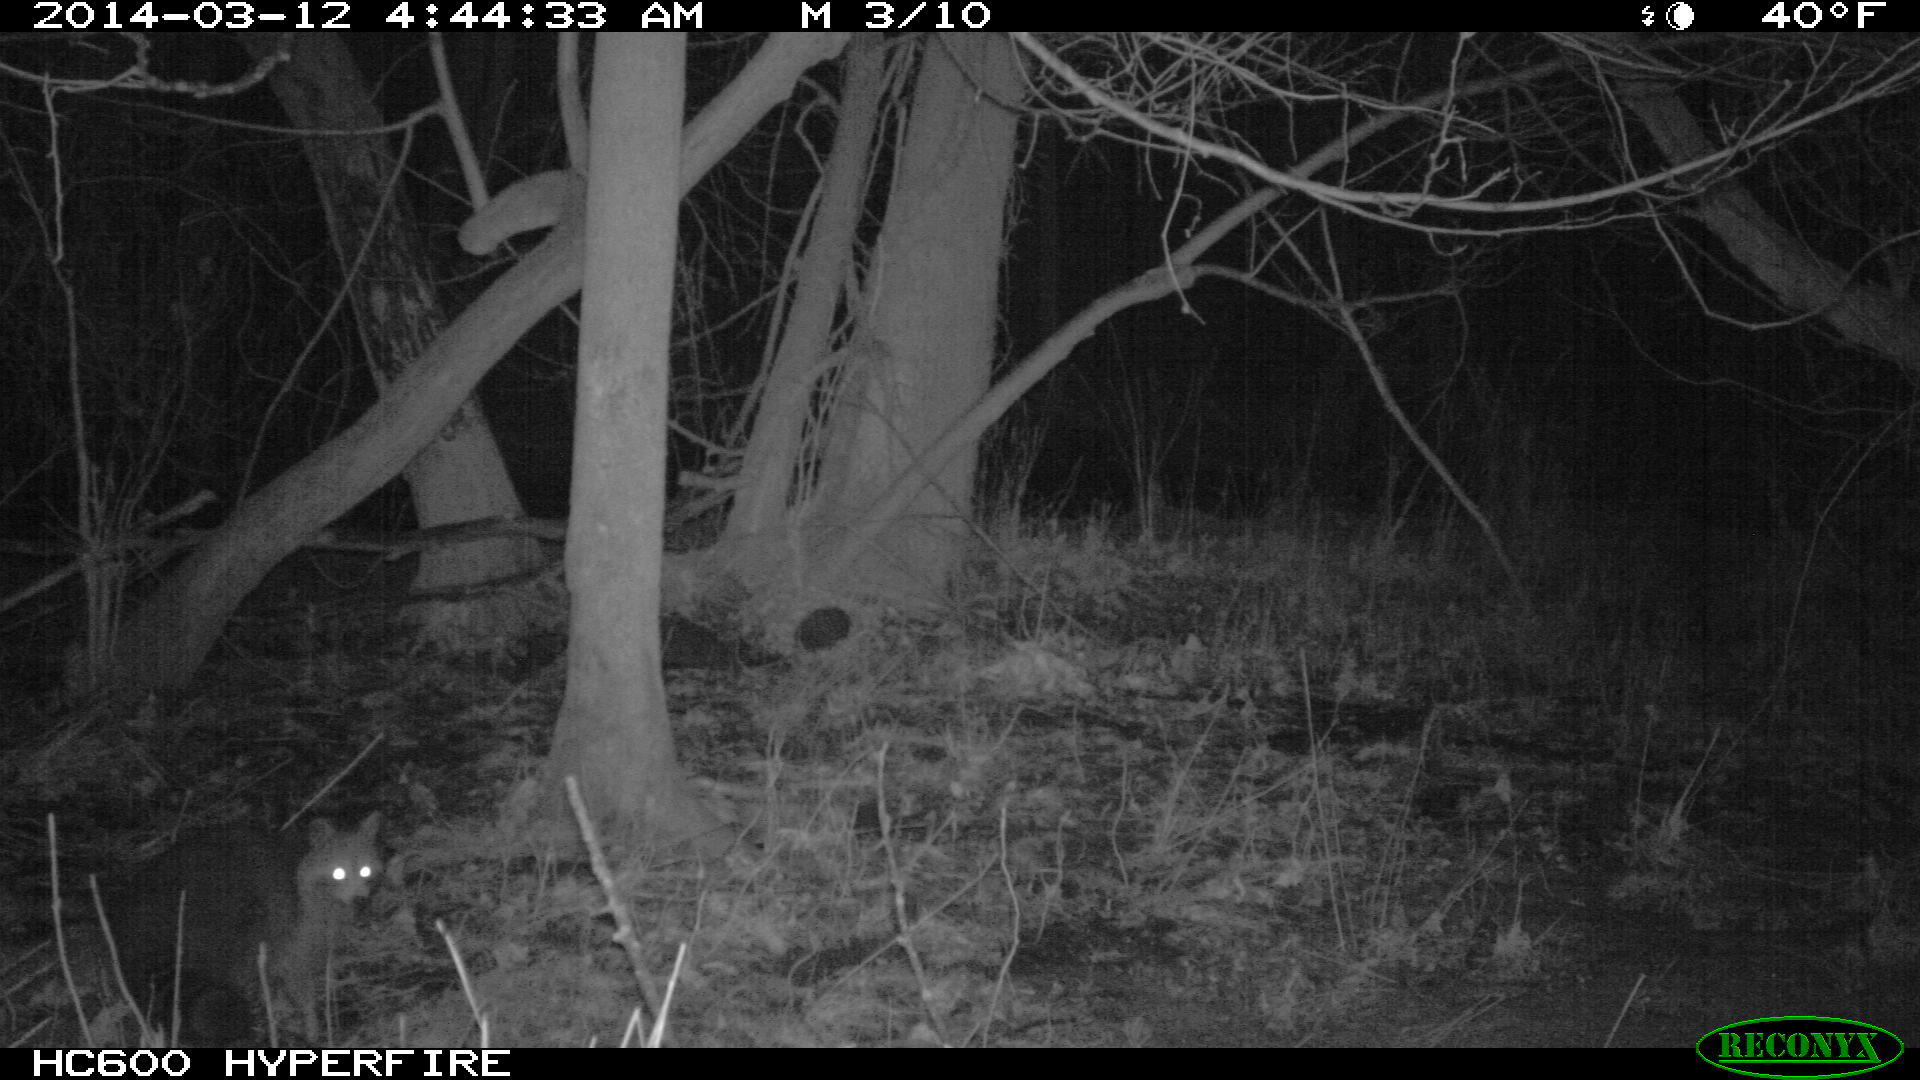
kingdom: Animalia
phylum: Chordata
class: Mammalia
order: Carnivora
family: Procyonidae
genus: Procyon
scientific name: Procyon lotor
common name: Raccoon
